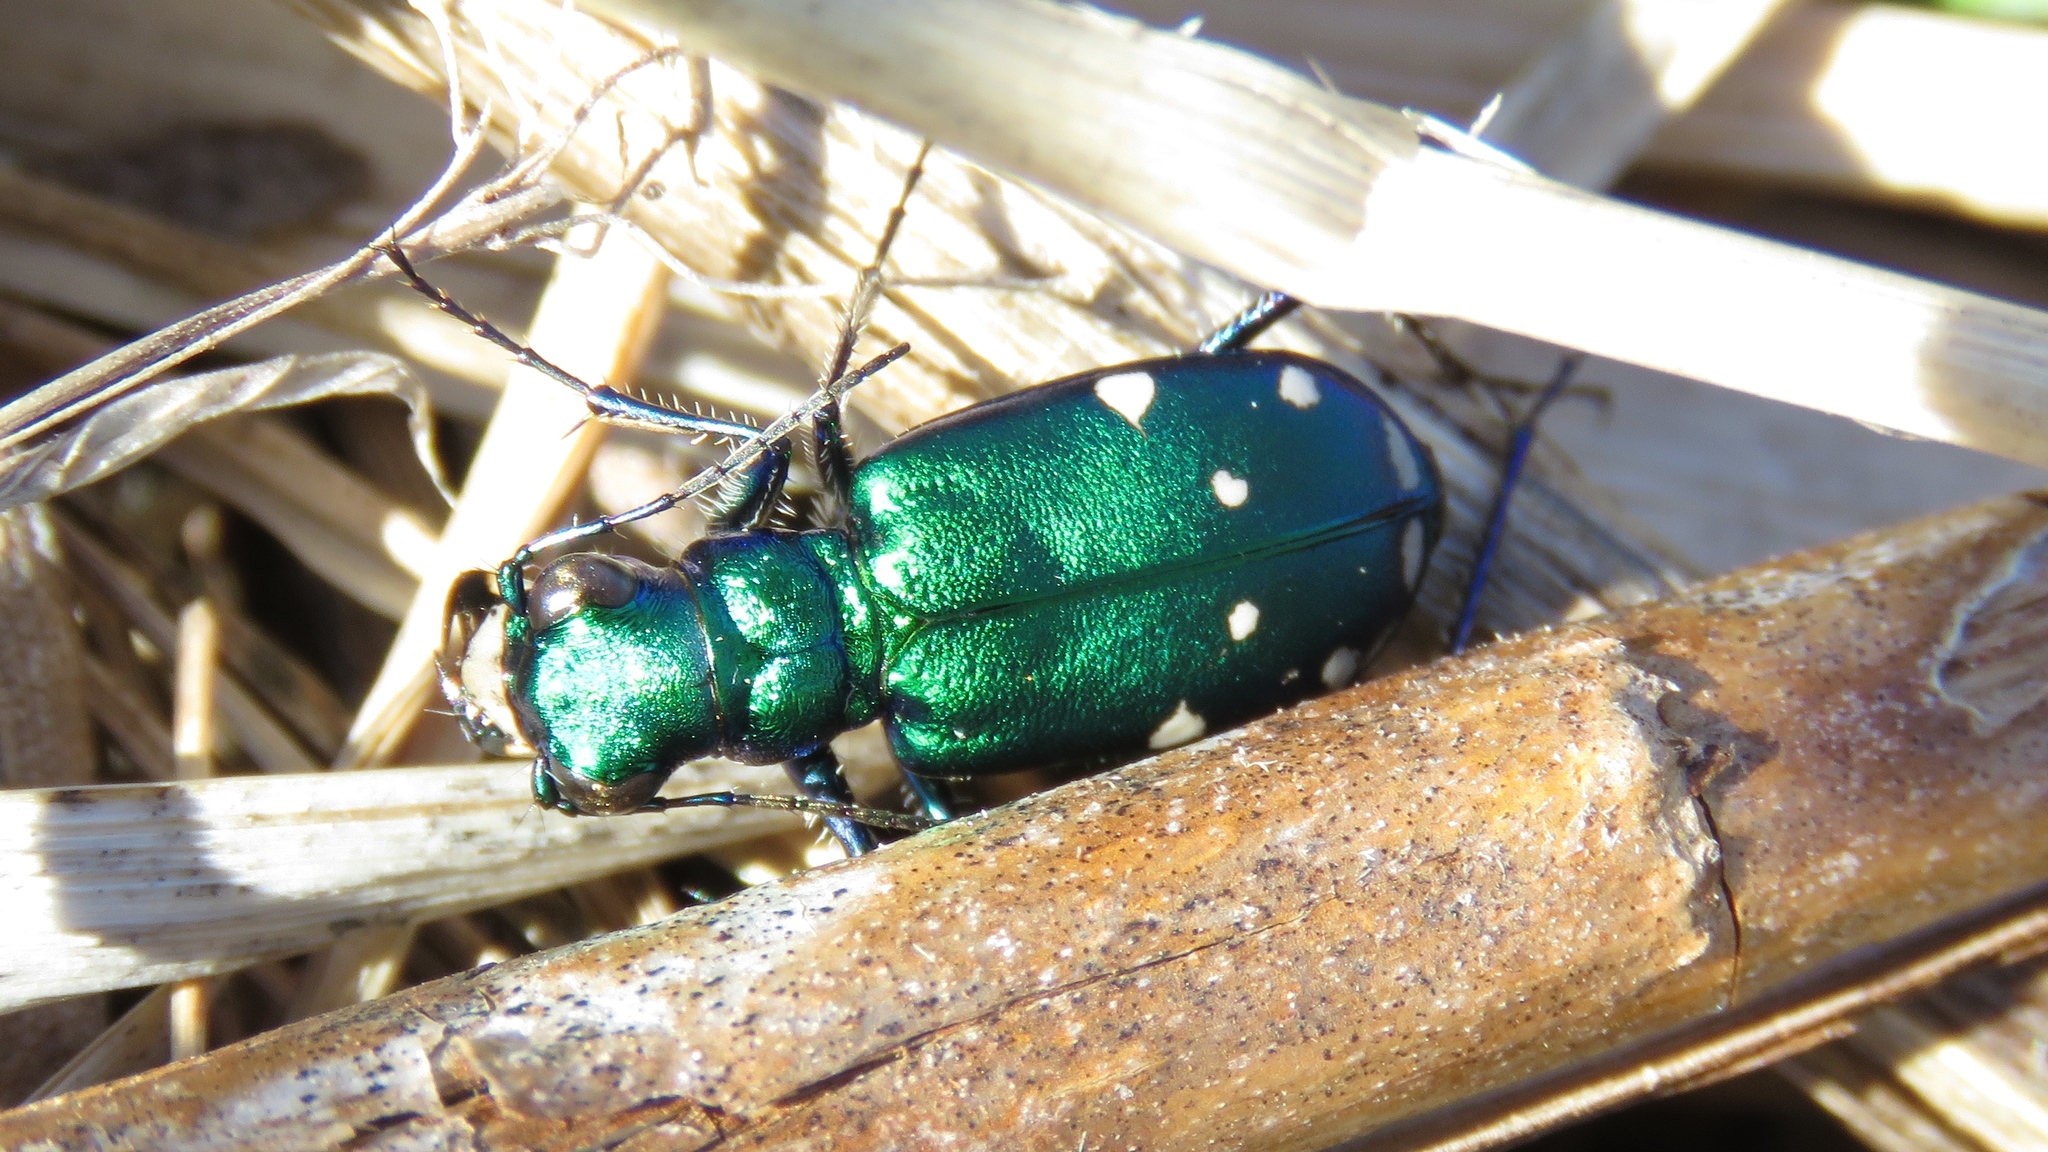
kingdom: Animalia
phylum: Arthropoda
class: Insecta
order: Coleoptera
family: Carabidae
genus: Cicindela
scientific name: Cicindela sexguttata
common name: Six-spotted tiger beetle
